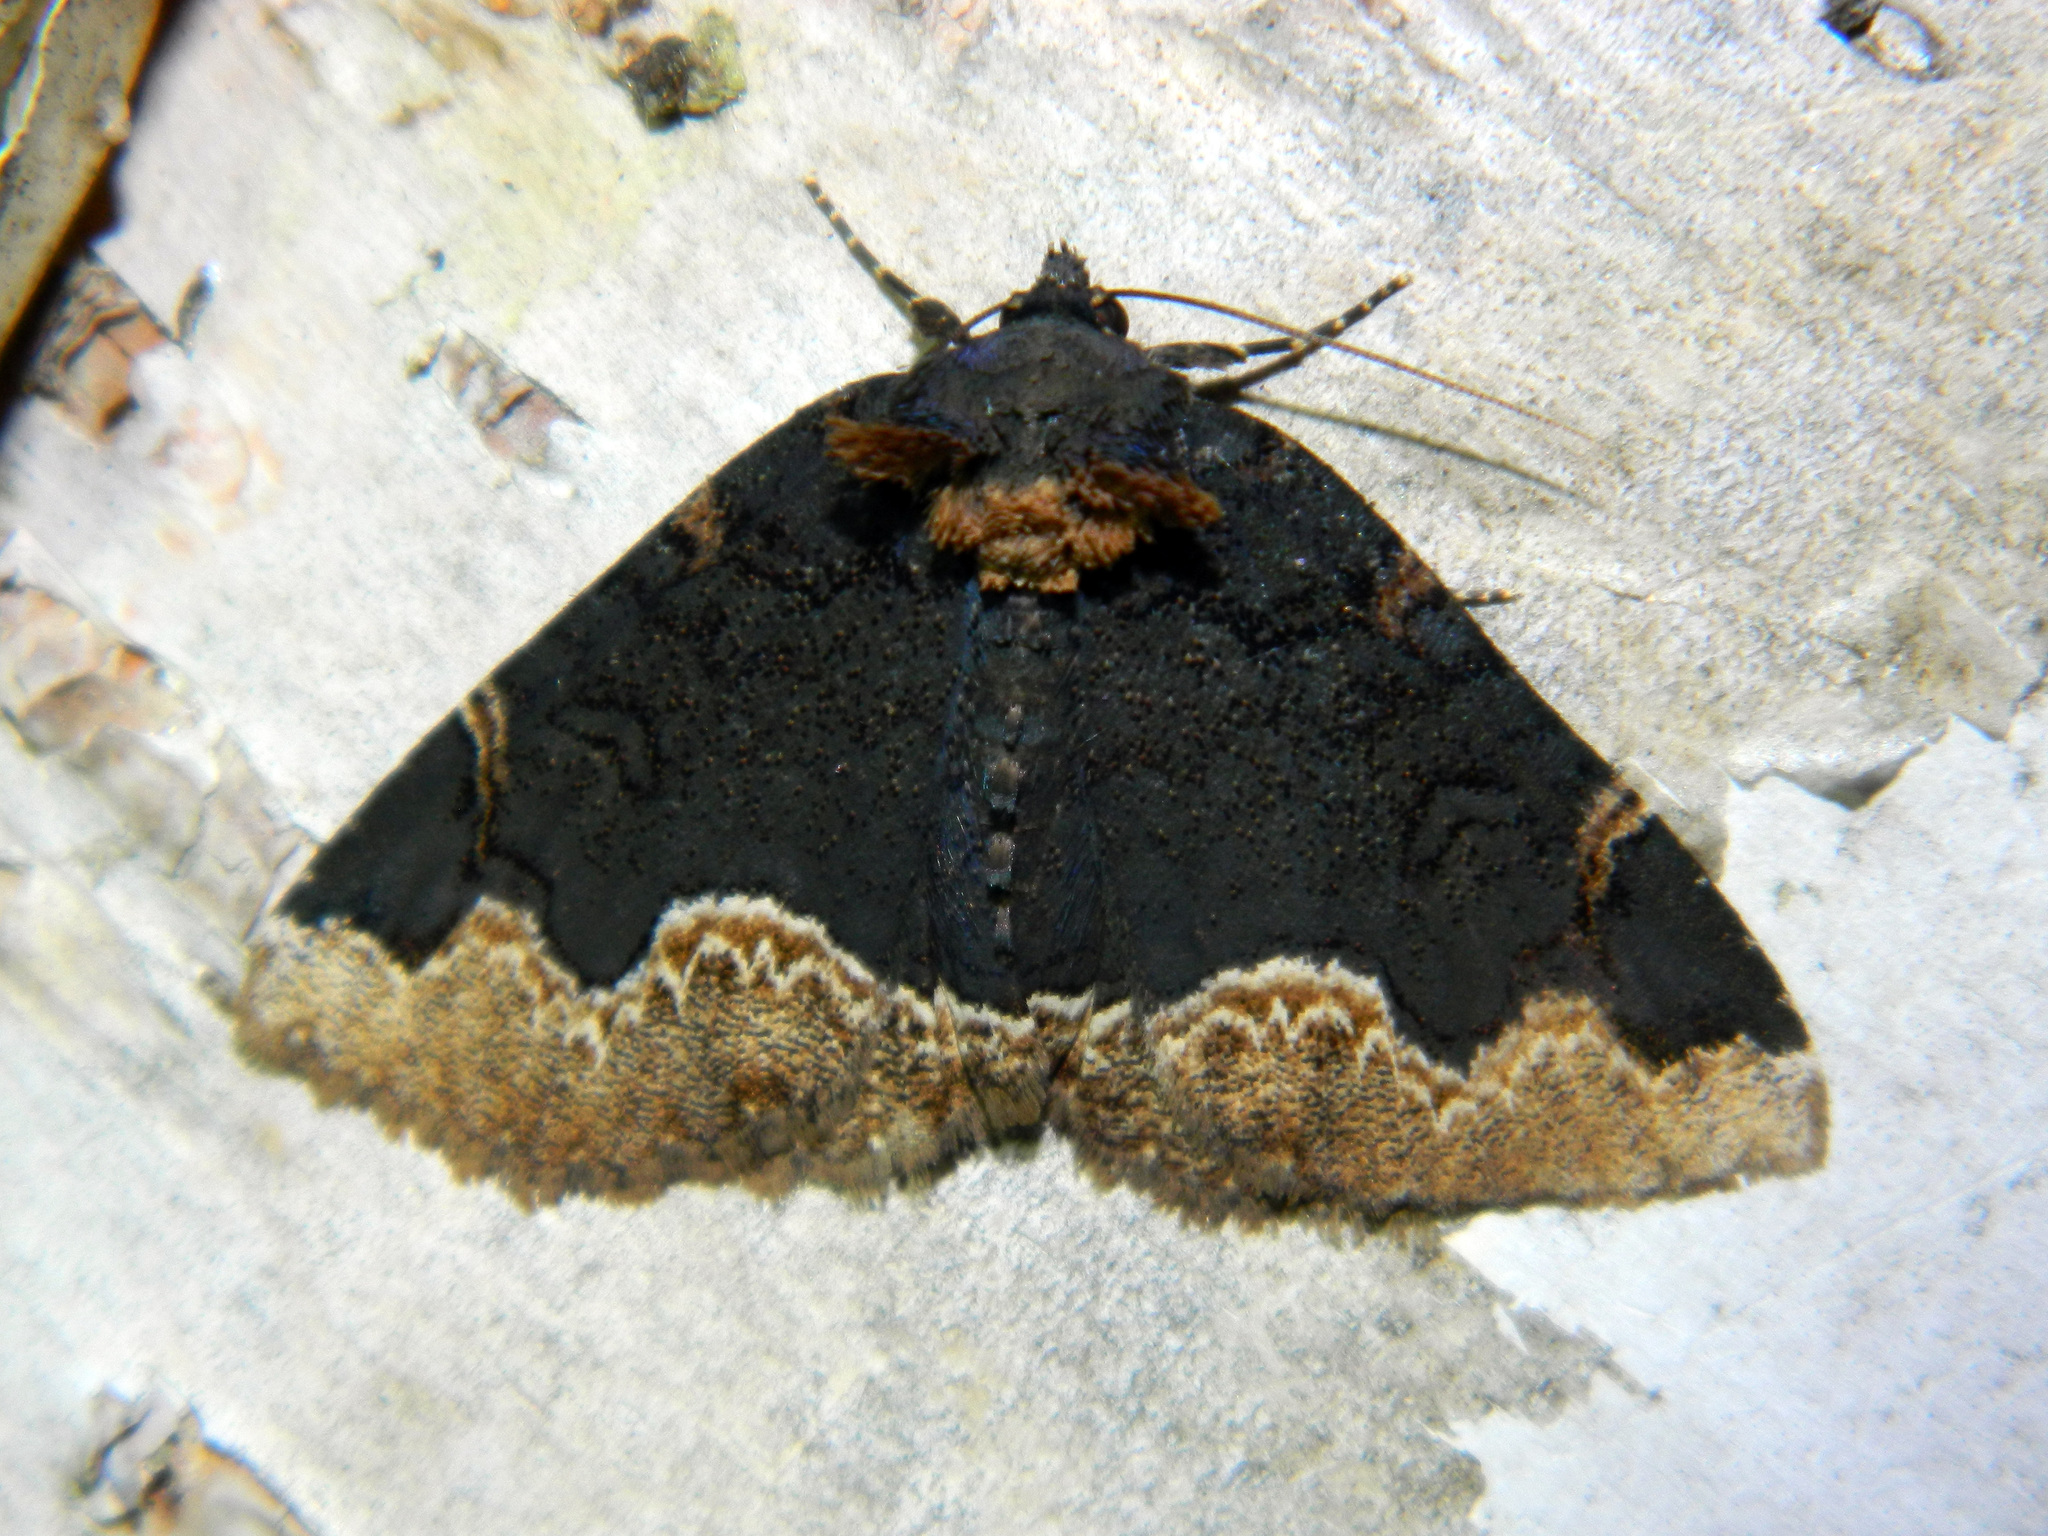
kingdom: Animalia
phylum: Arthropoda
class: Insecta
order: Lepidoptera
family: Erebidae
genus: Zale
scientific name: Zale horrida
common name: Horrid zale moth
